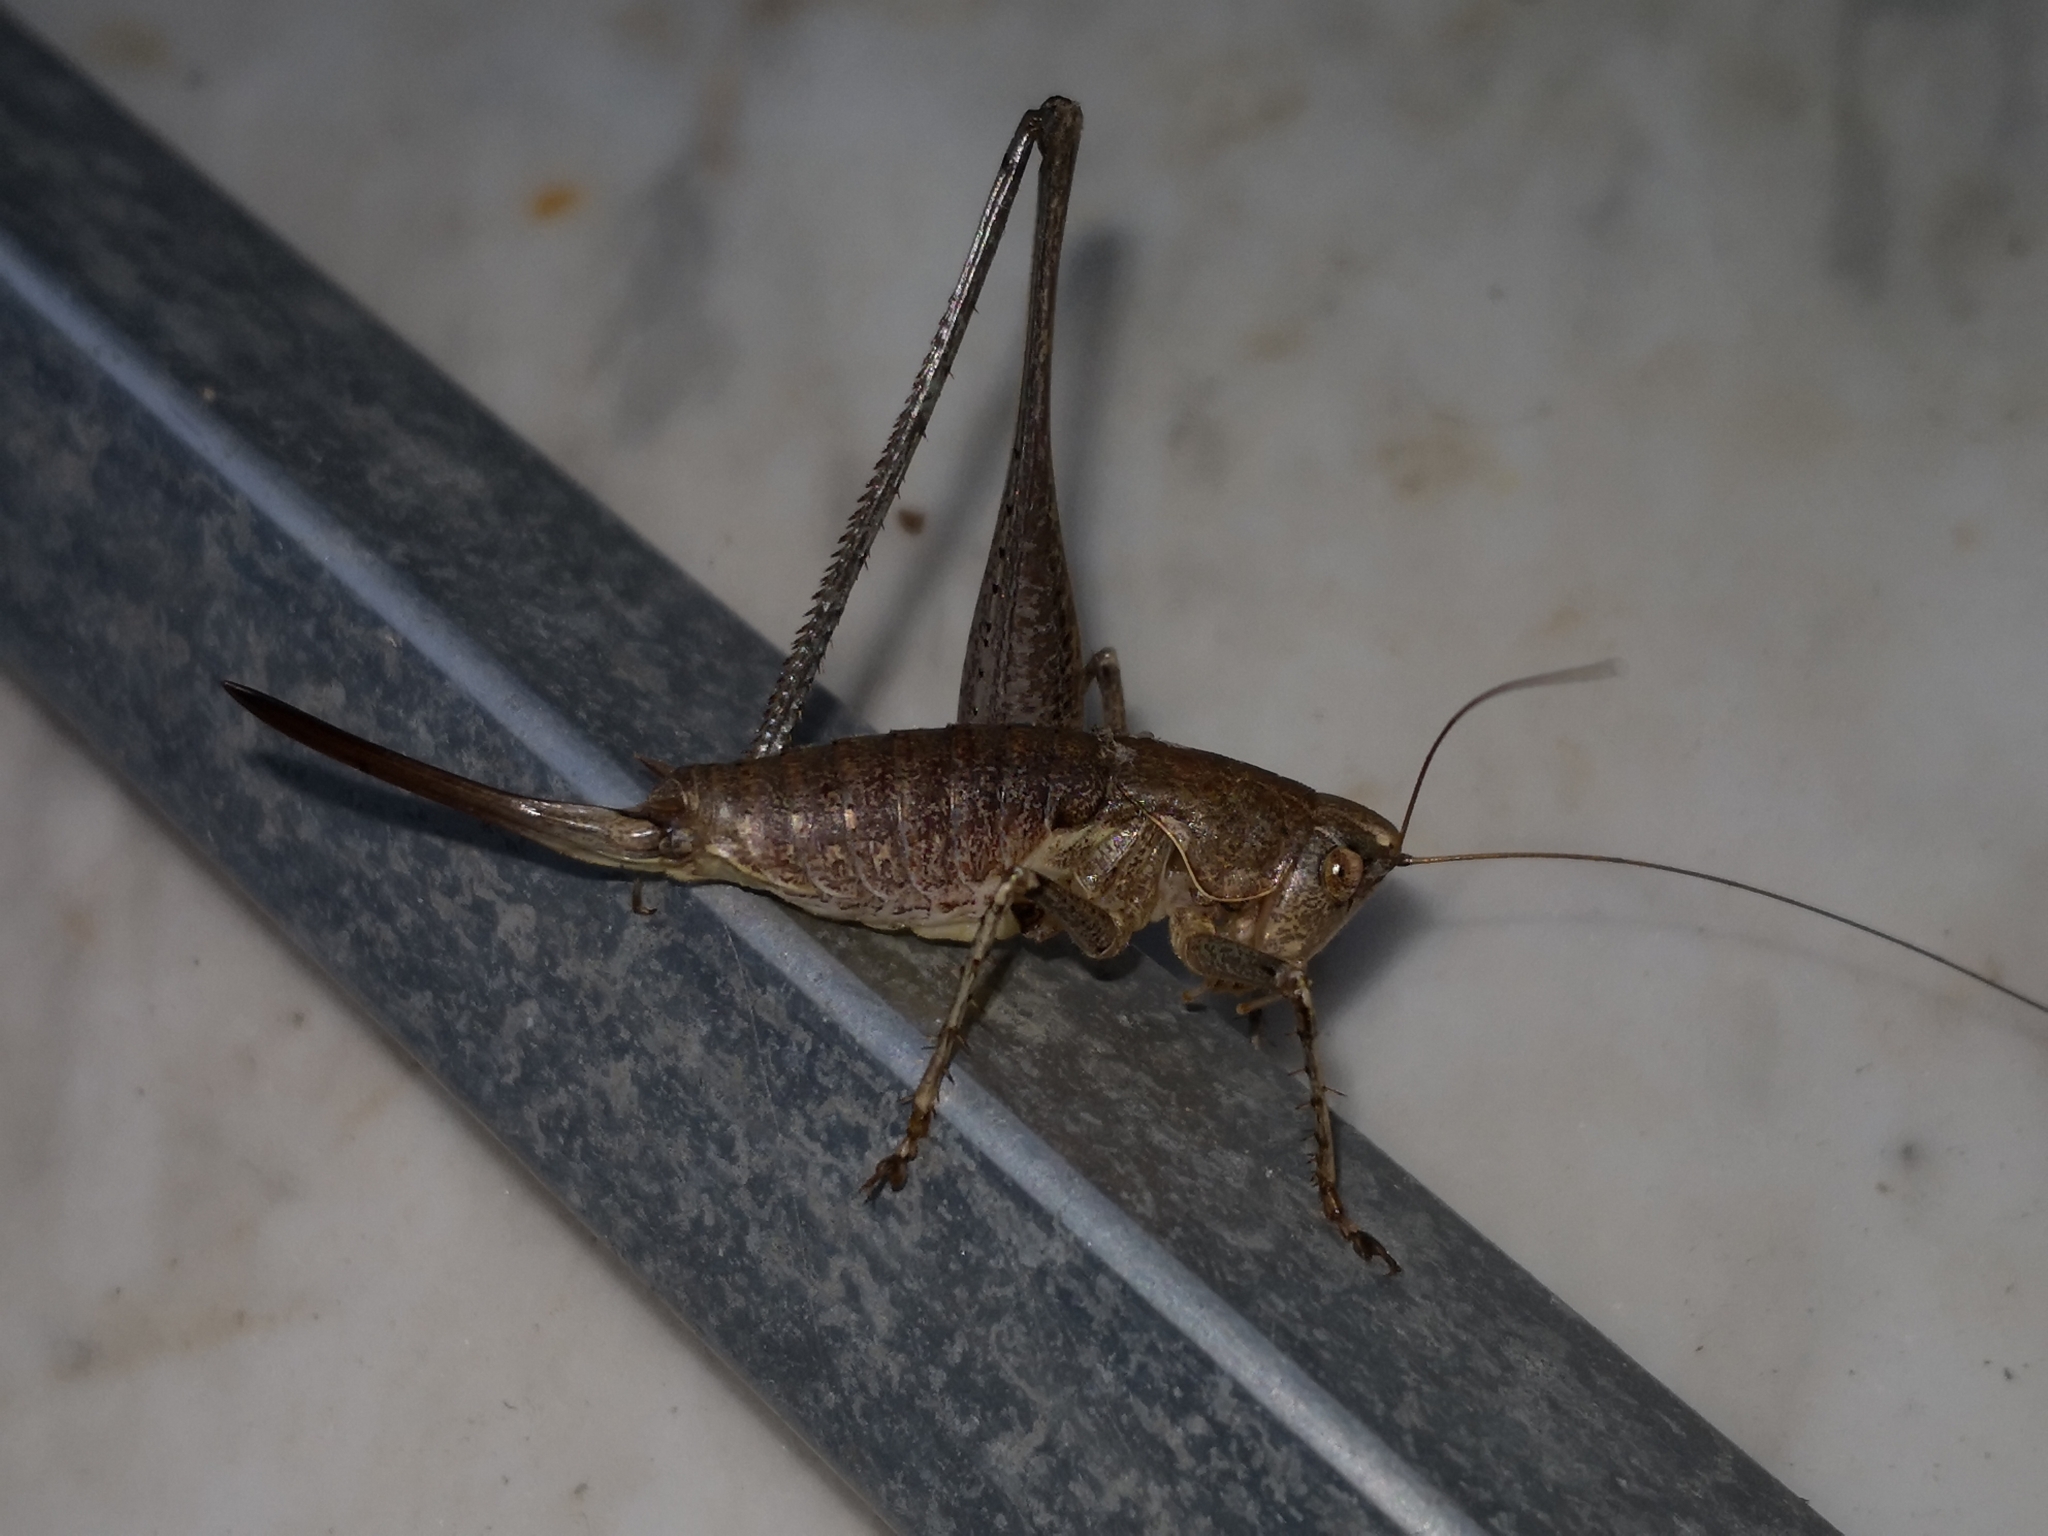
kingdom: Animalia
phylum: Arthropoda
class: Insecta
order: Orthoptera
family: Tettigoniidae
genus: Rhacocleis
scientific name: Rhacocleis germanica
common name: Mediterranean bush-cricket
